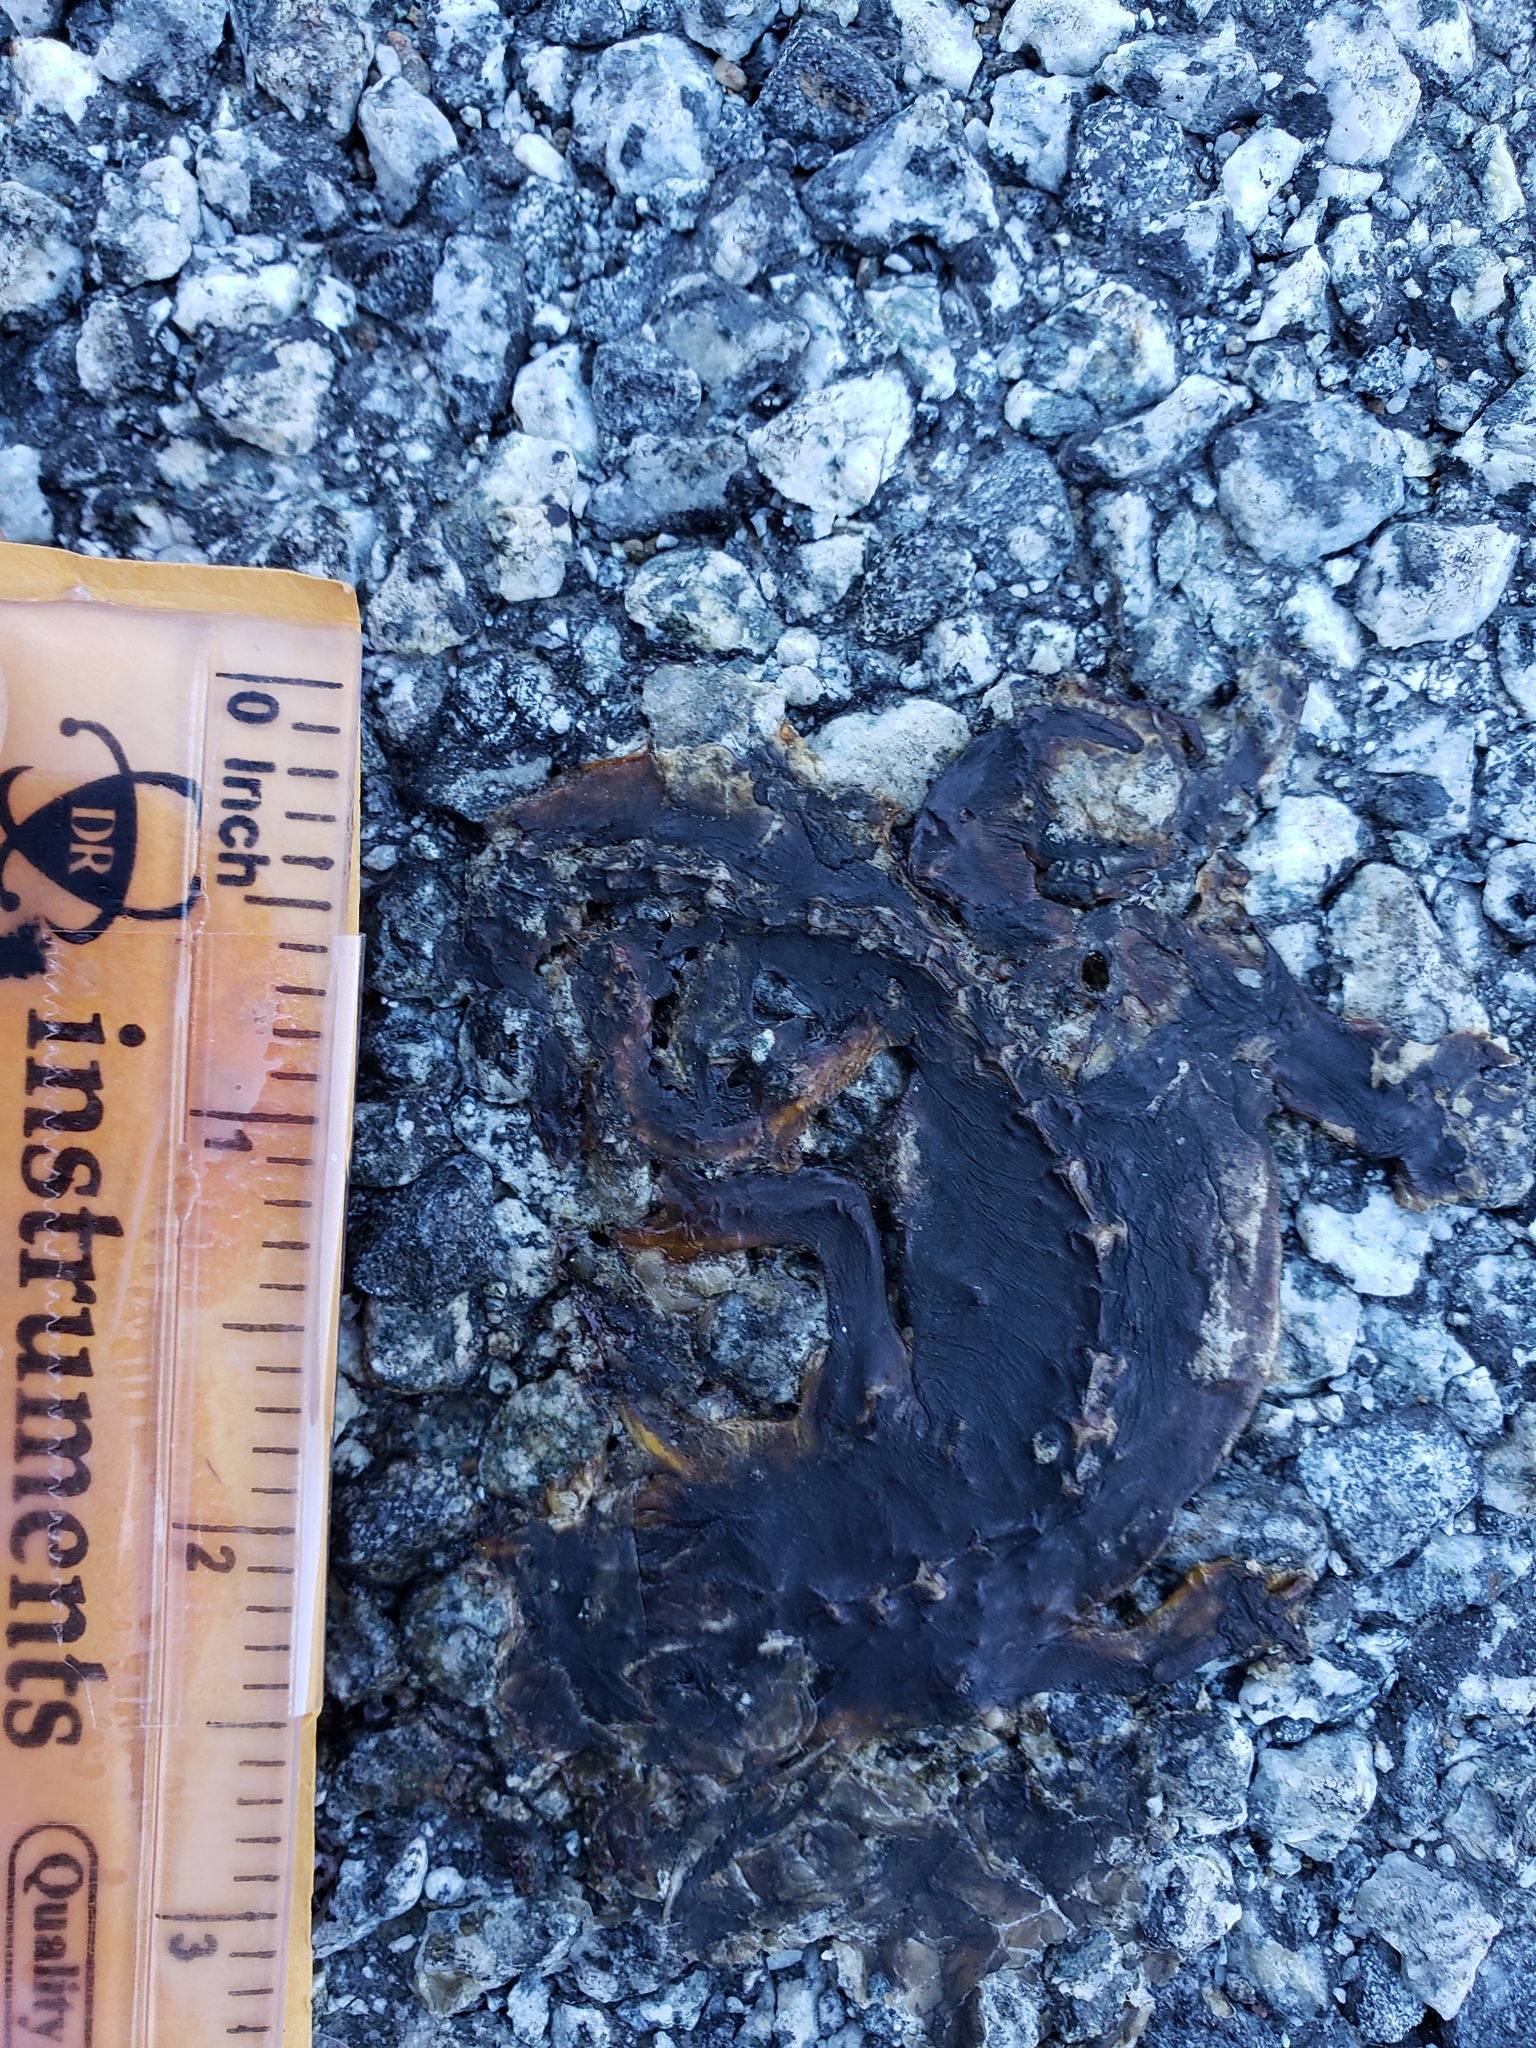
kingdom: Animalia
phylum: Chordata
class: Amphibia
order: Caudata
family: Salamandridae
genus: Taricha
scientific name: Taricha
